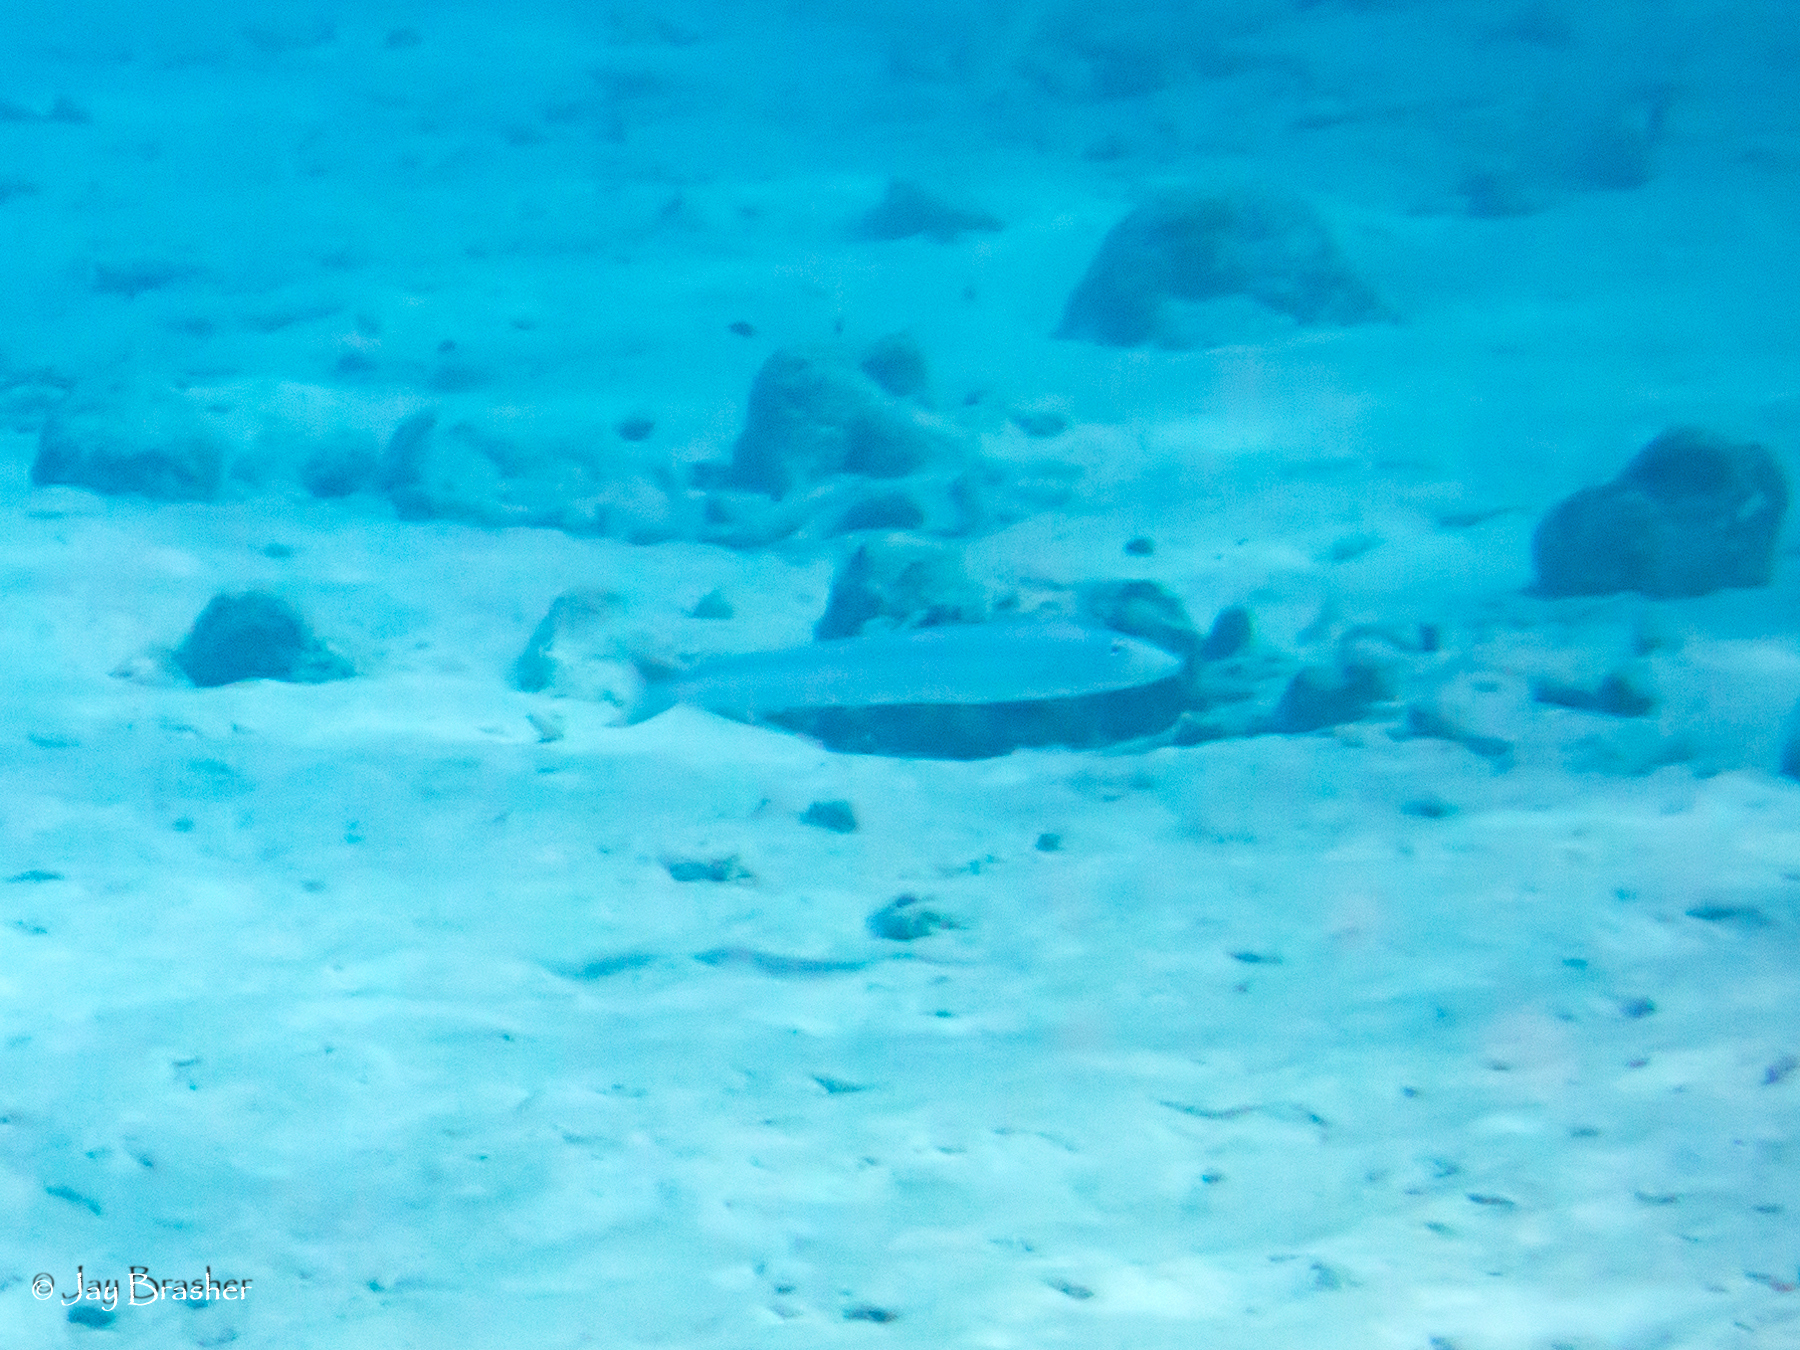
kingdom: Animalia
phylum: Chordata
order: Perciformes
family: Malacanthidae
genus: Malacanthus
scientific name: Malacanthus plumieri
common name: Sand tilefish
